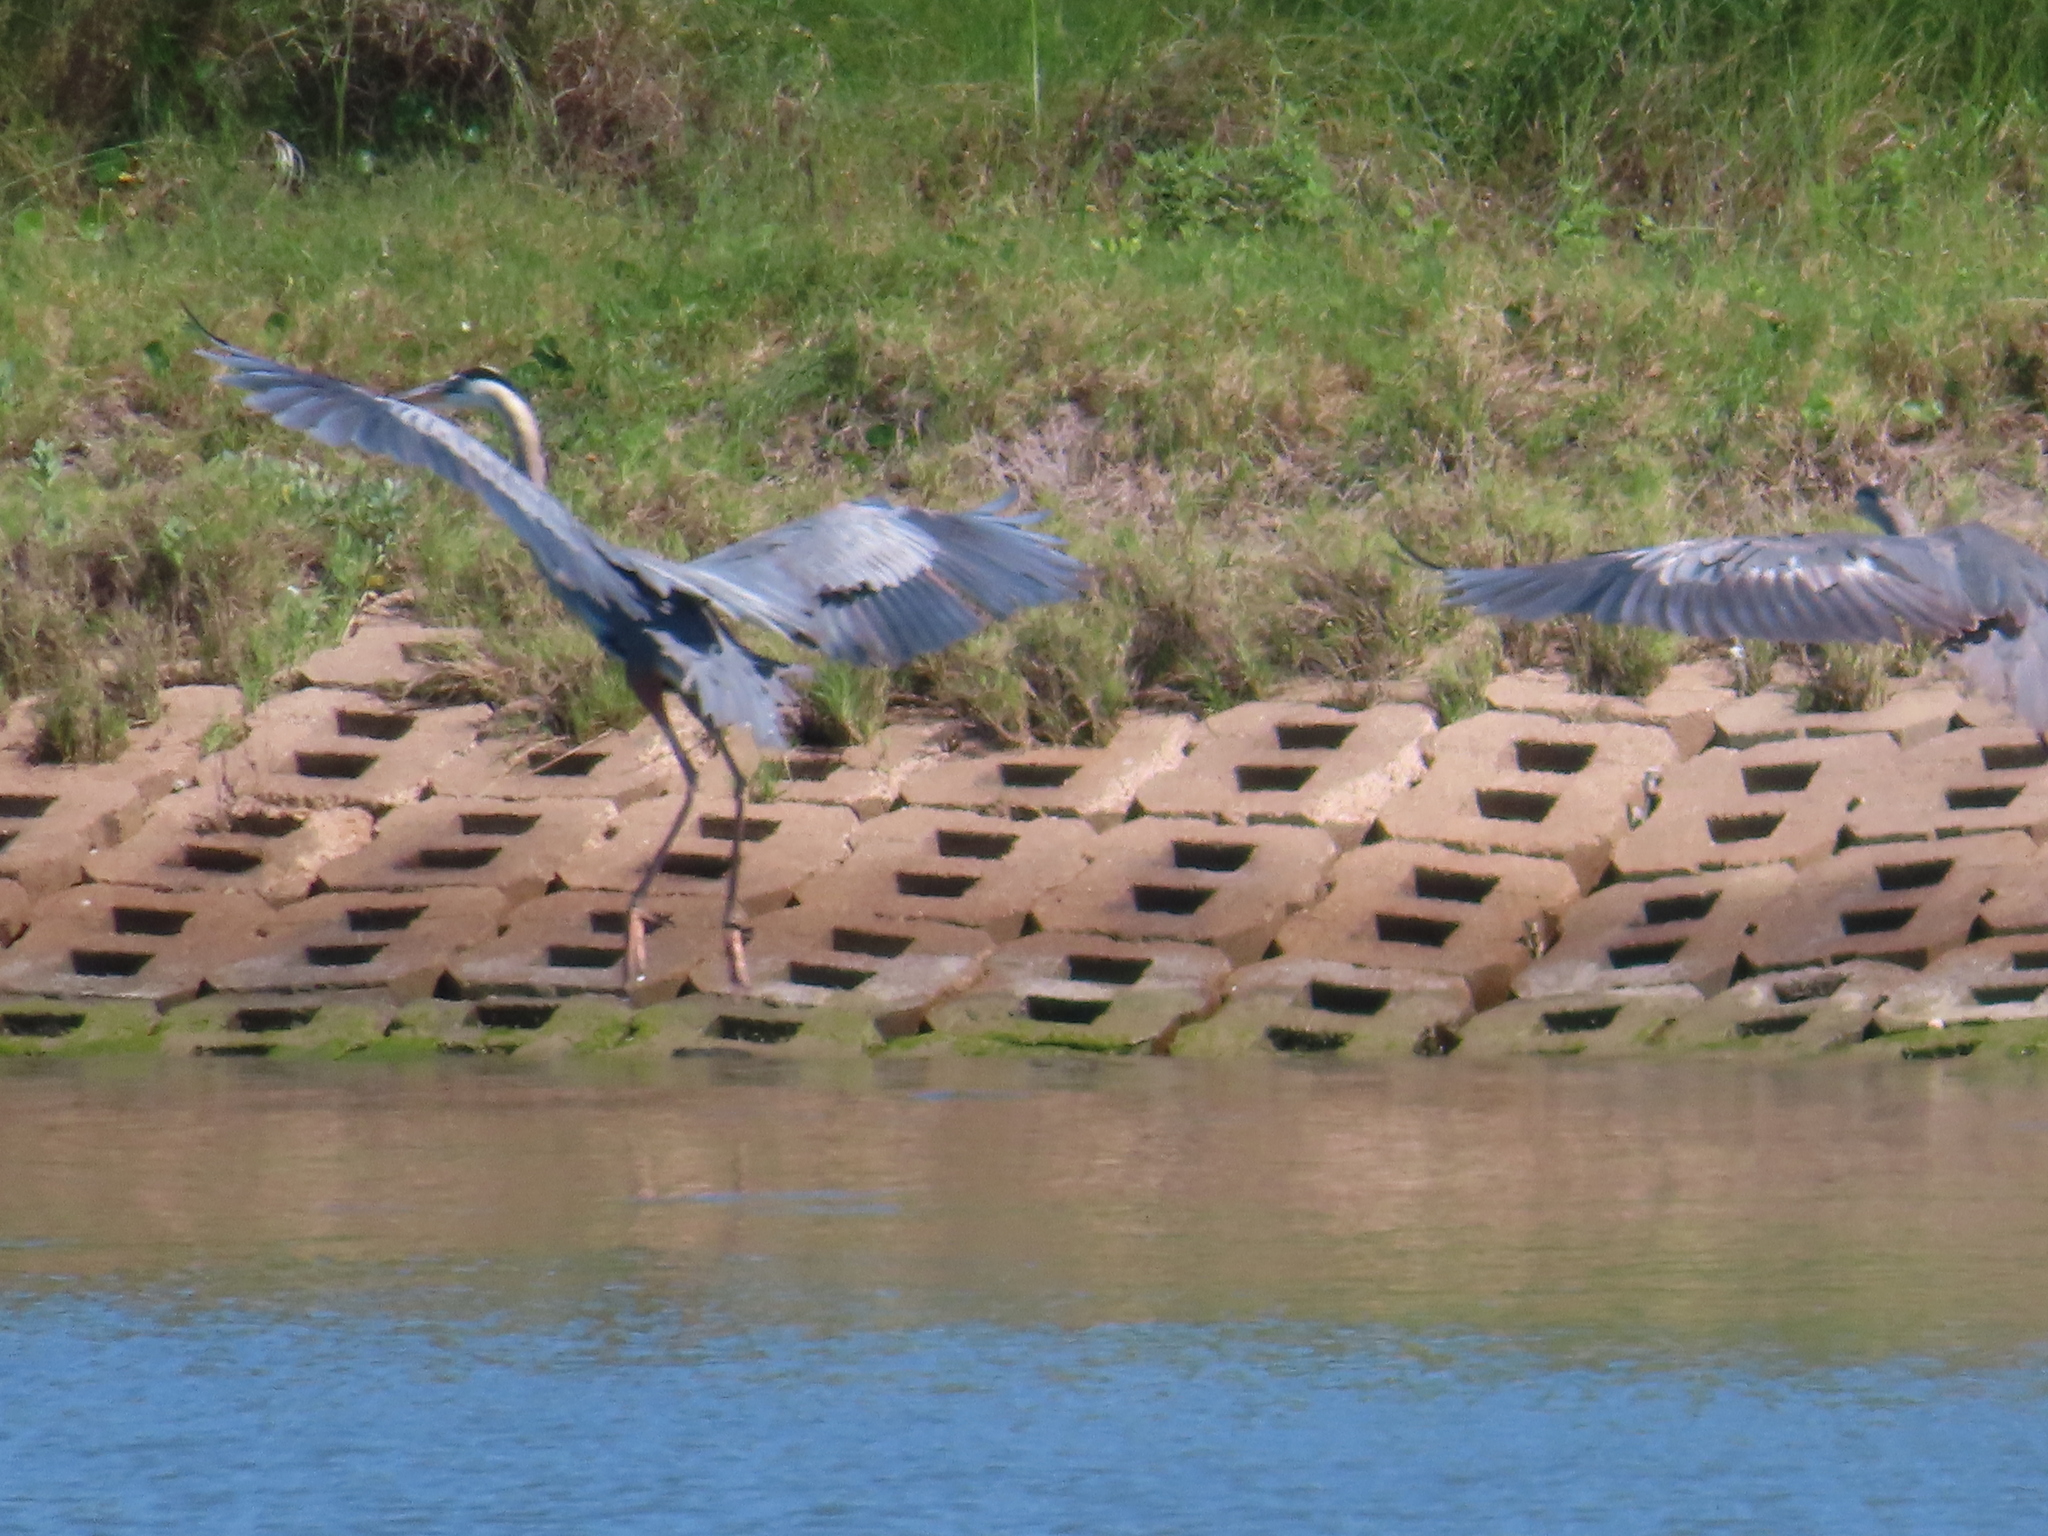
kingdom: Animalia
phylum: Chordata
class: Aves
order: Pelecaniformes
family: Ardeidae
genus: Ardea
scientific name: Ardea herodias
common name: Great blue heron
